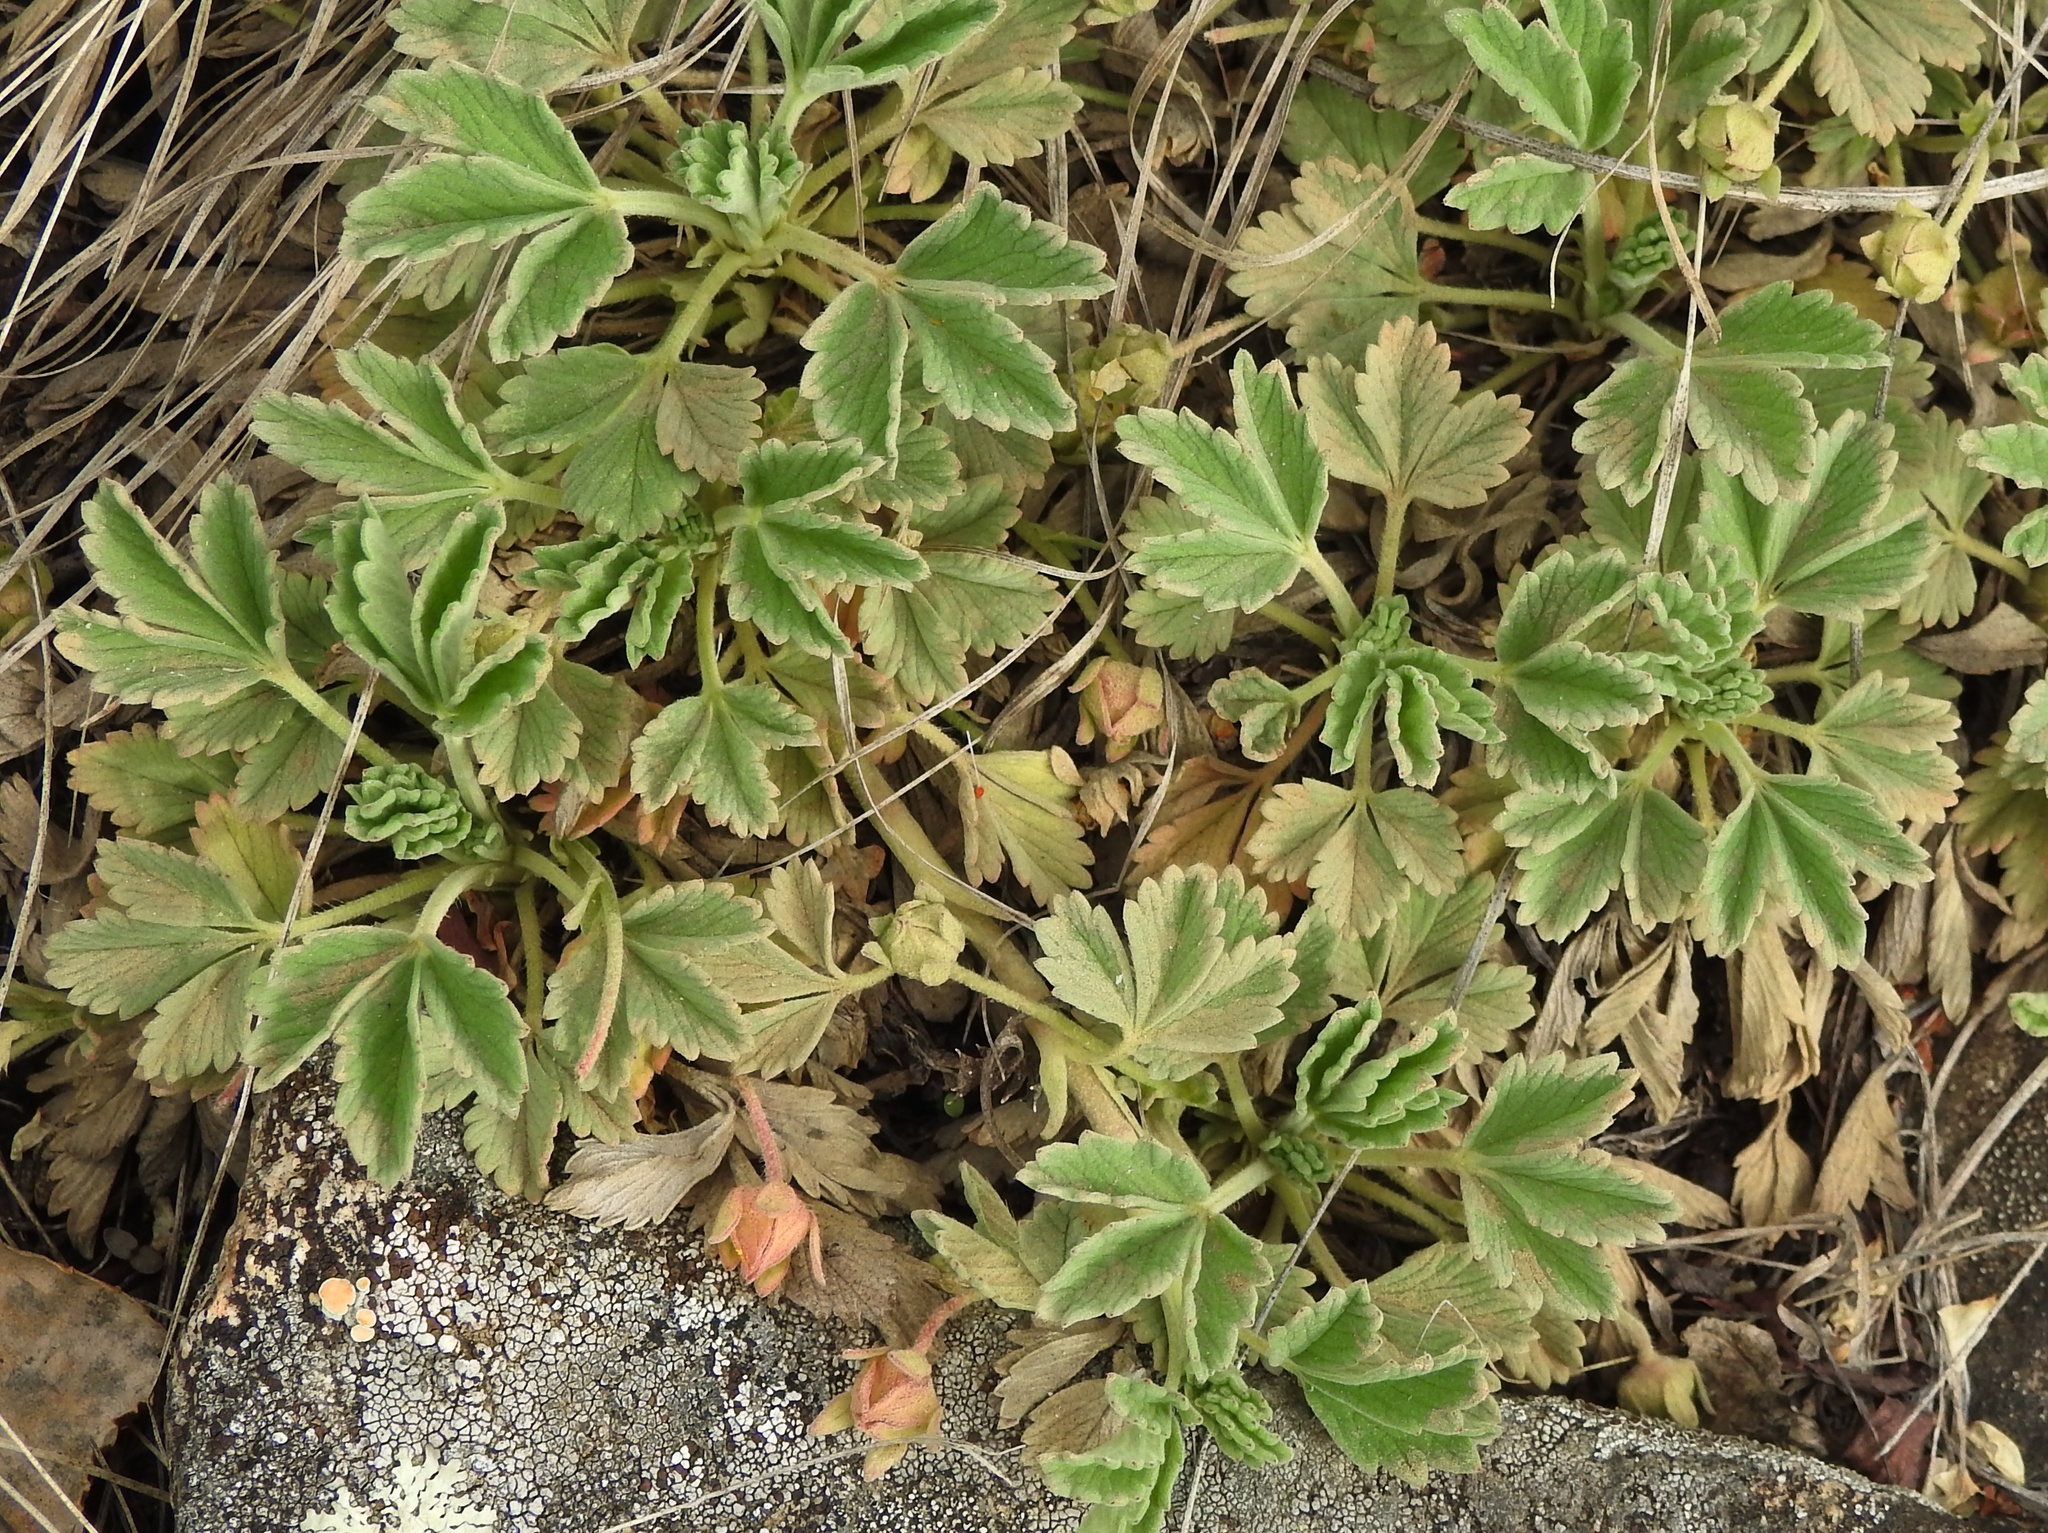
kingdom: Plantae
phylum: Tracheophyta
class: Magnoliopsida
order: Rosales
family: Rosaceae
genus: Potentilla
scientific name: Potentilla acaulis
